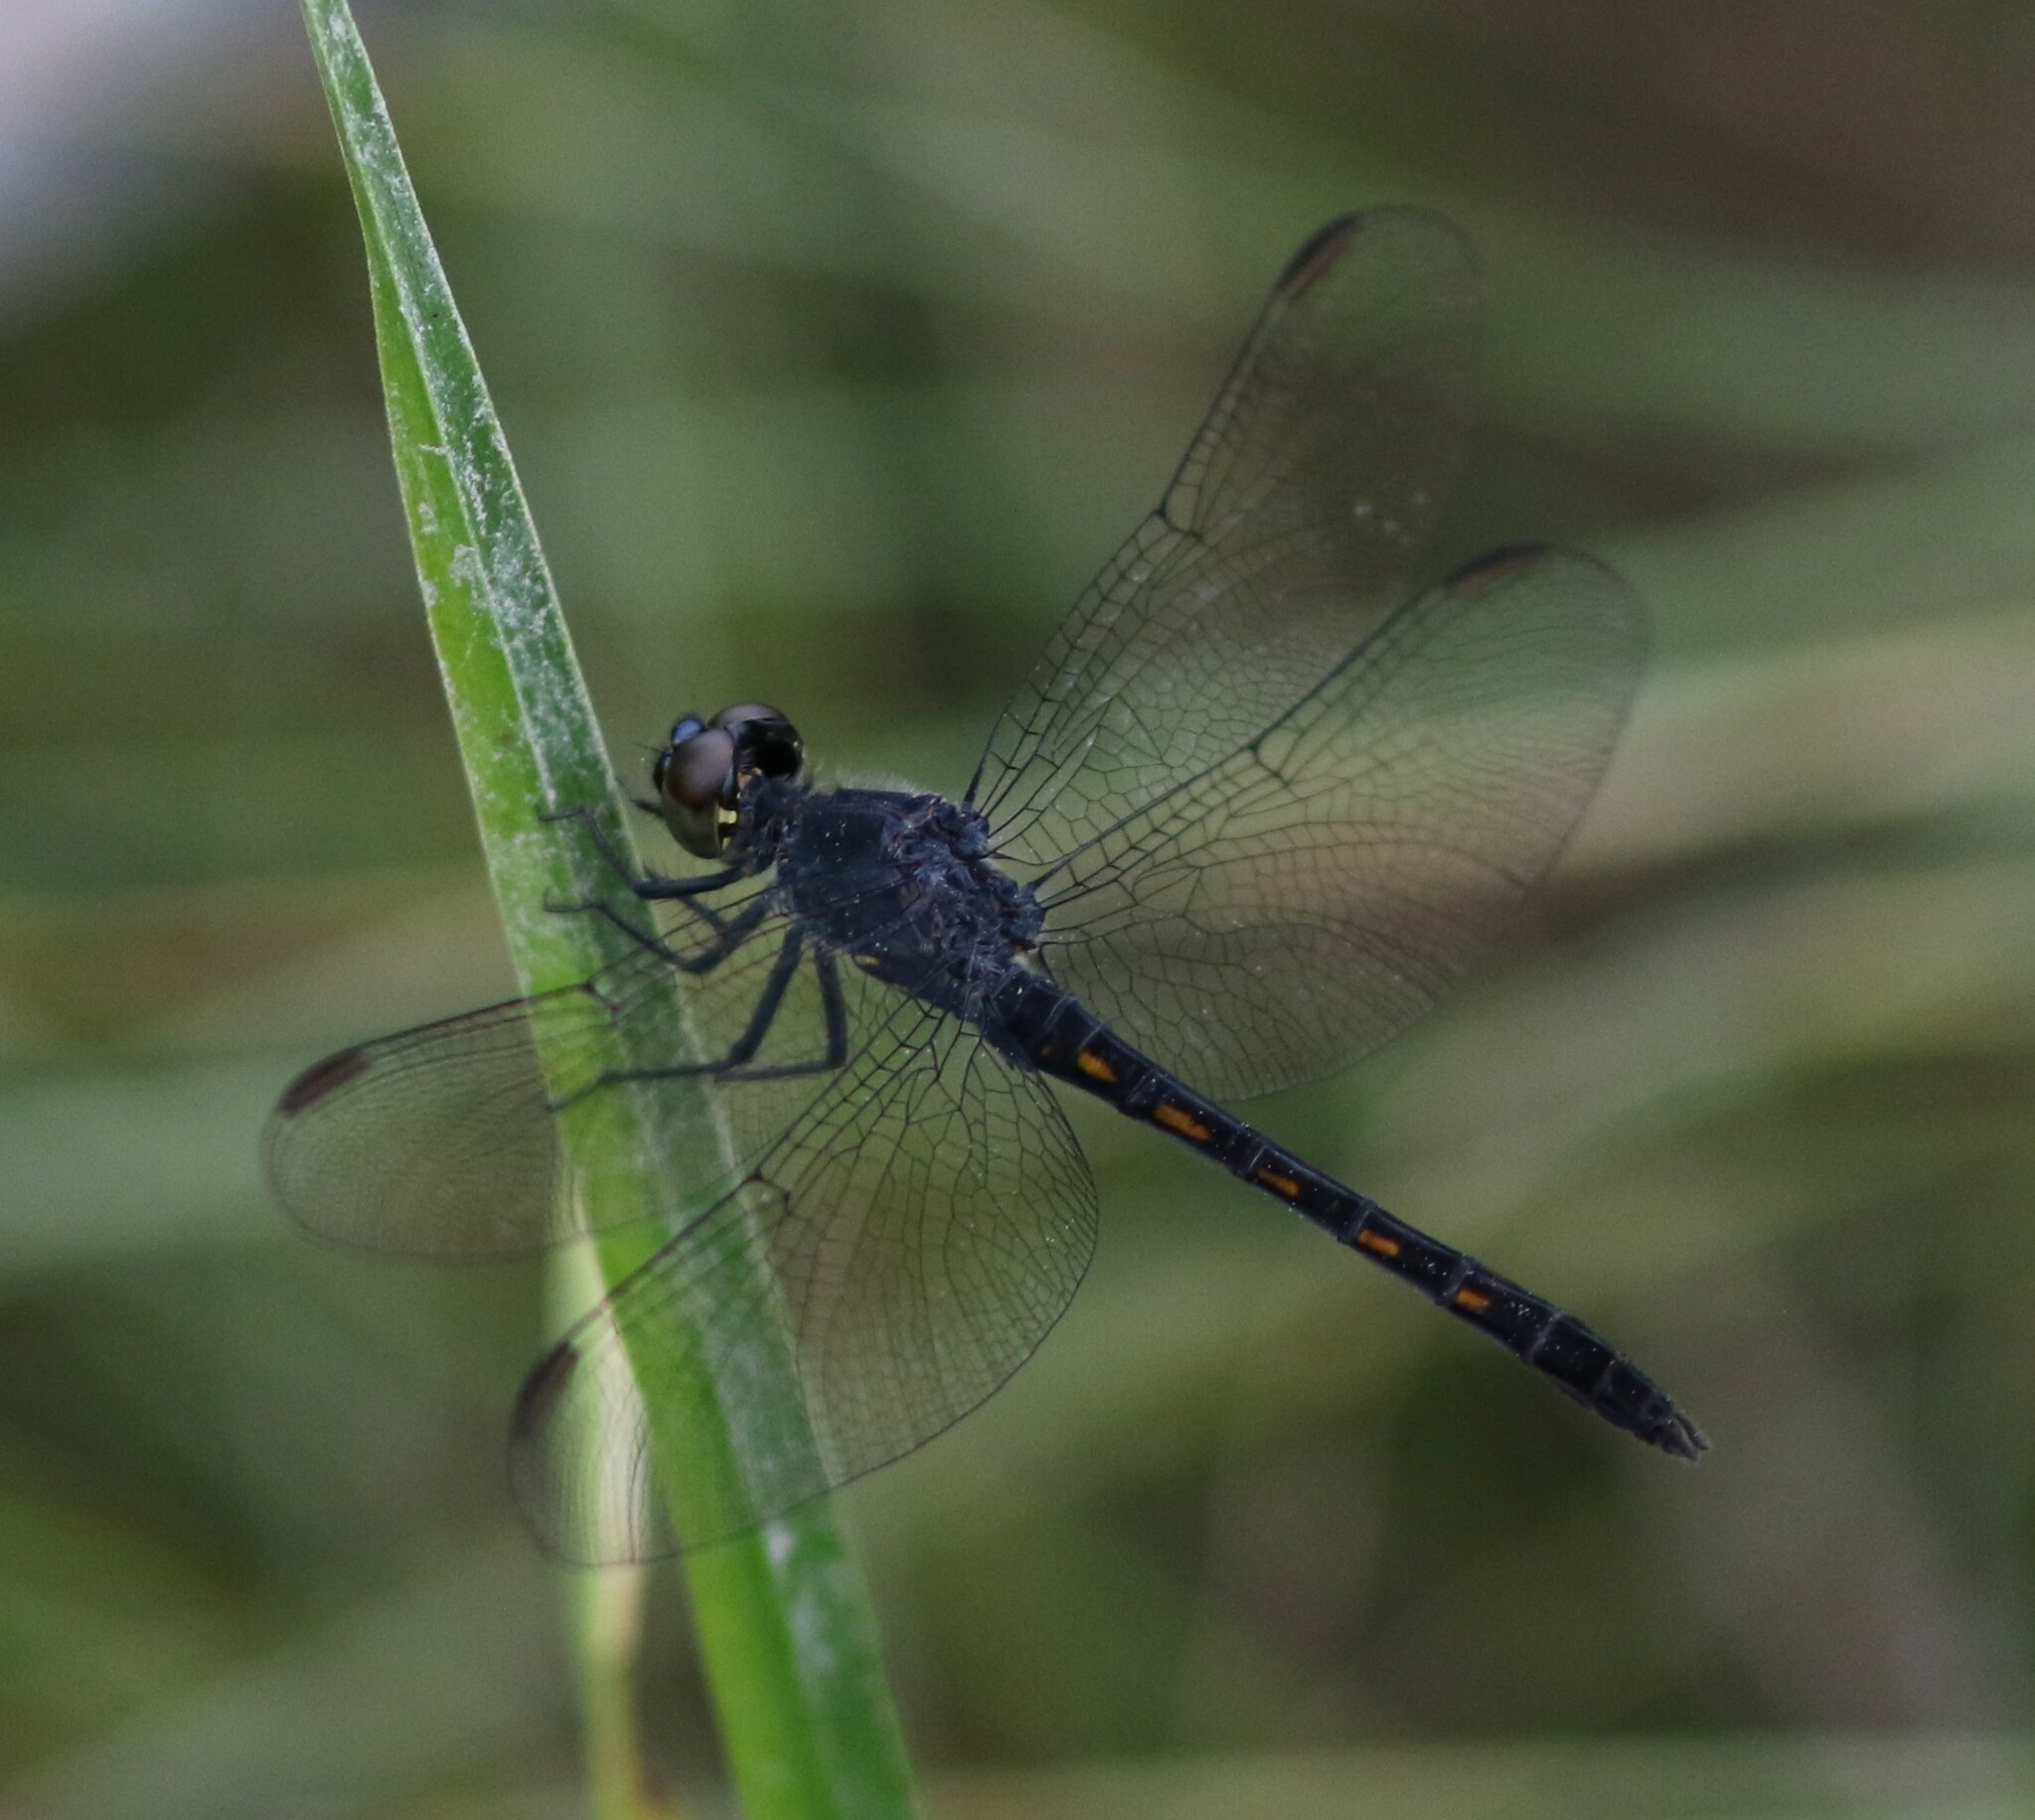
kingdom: Animalia
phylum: Arthropoda
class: Insecta
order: Odonata
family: Libellulidae
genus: Erythrodiplax
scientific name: Erythrodiplax berenice
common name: Seaside dragonlet
